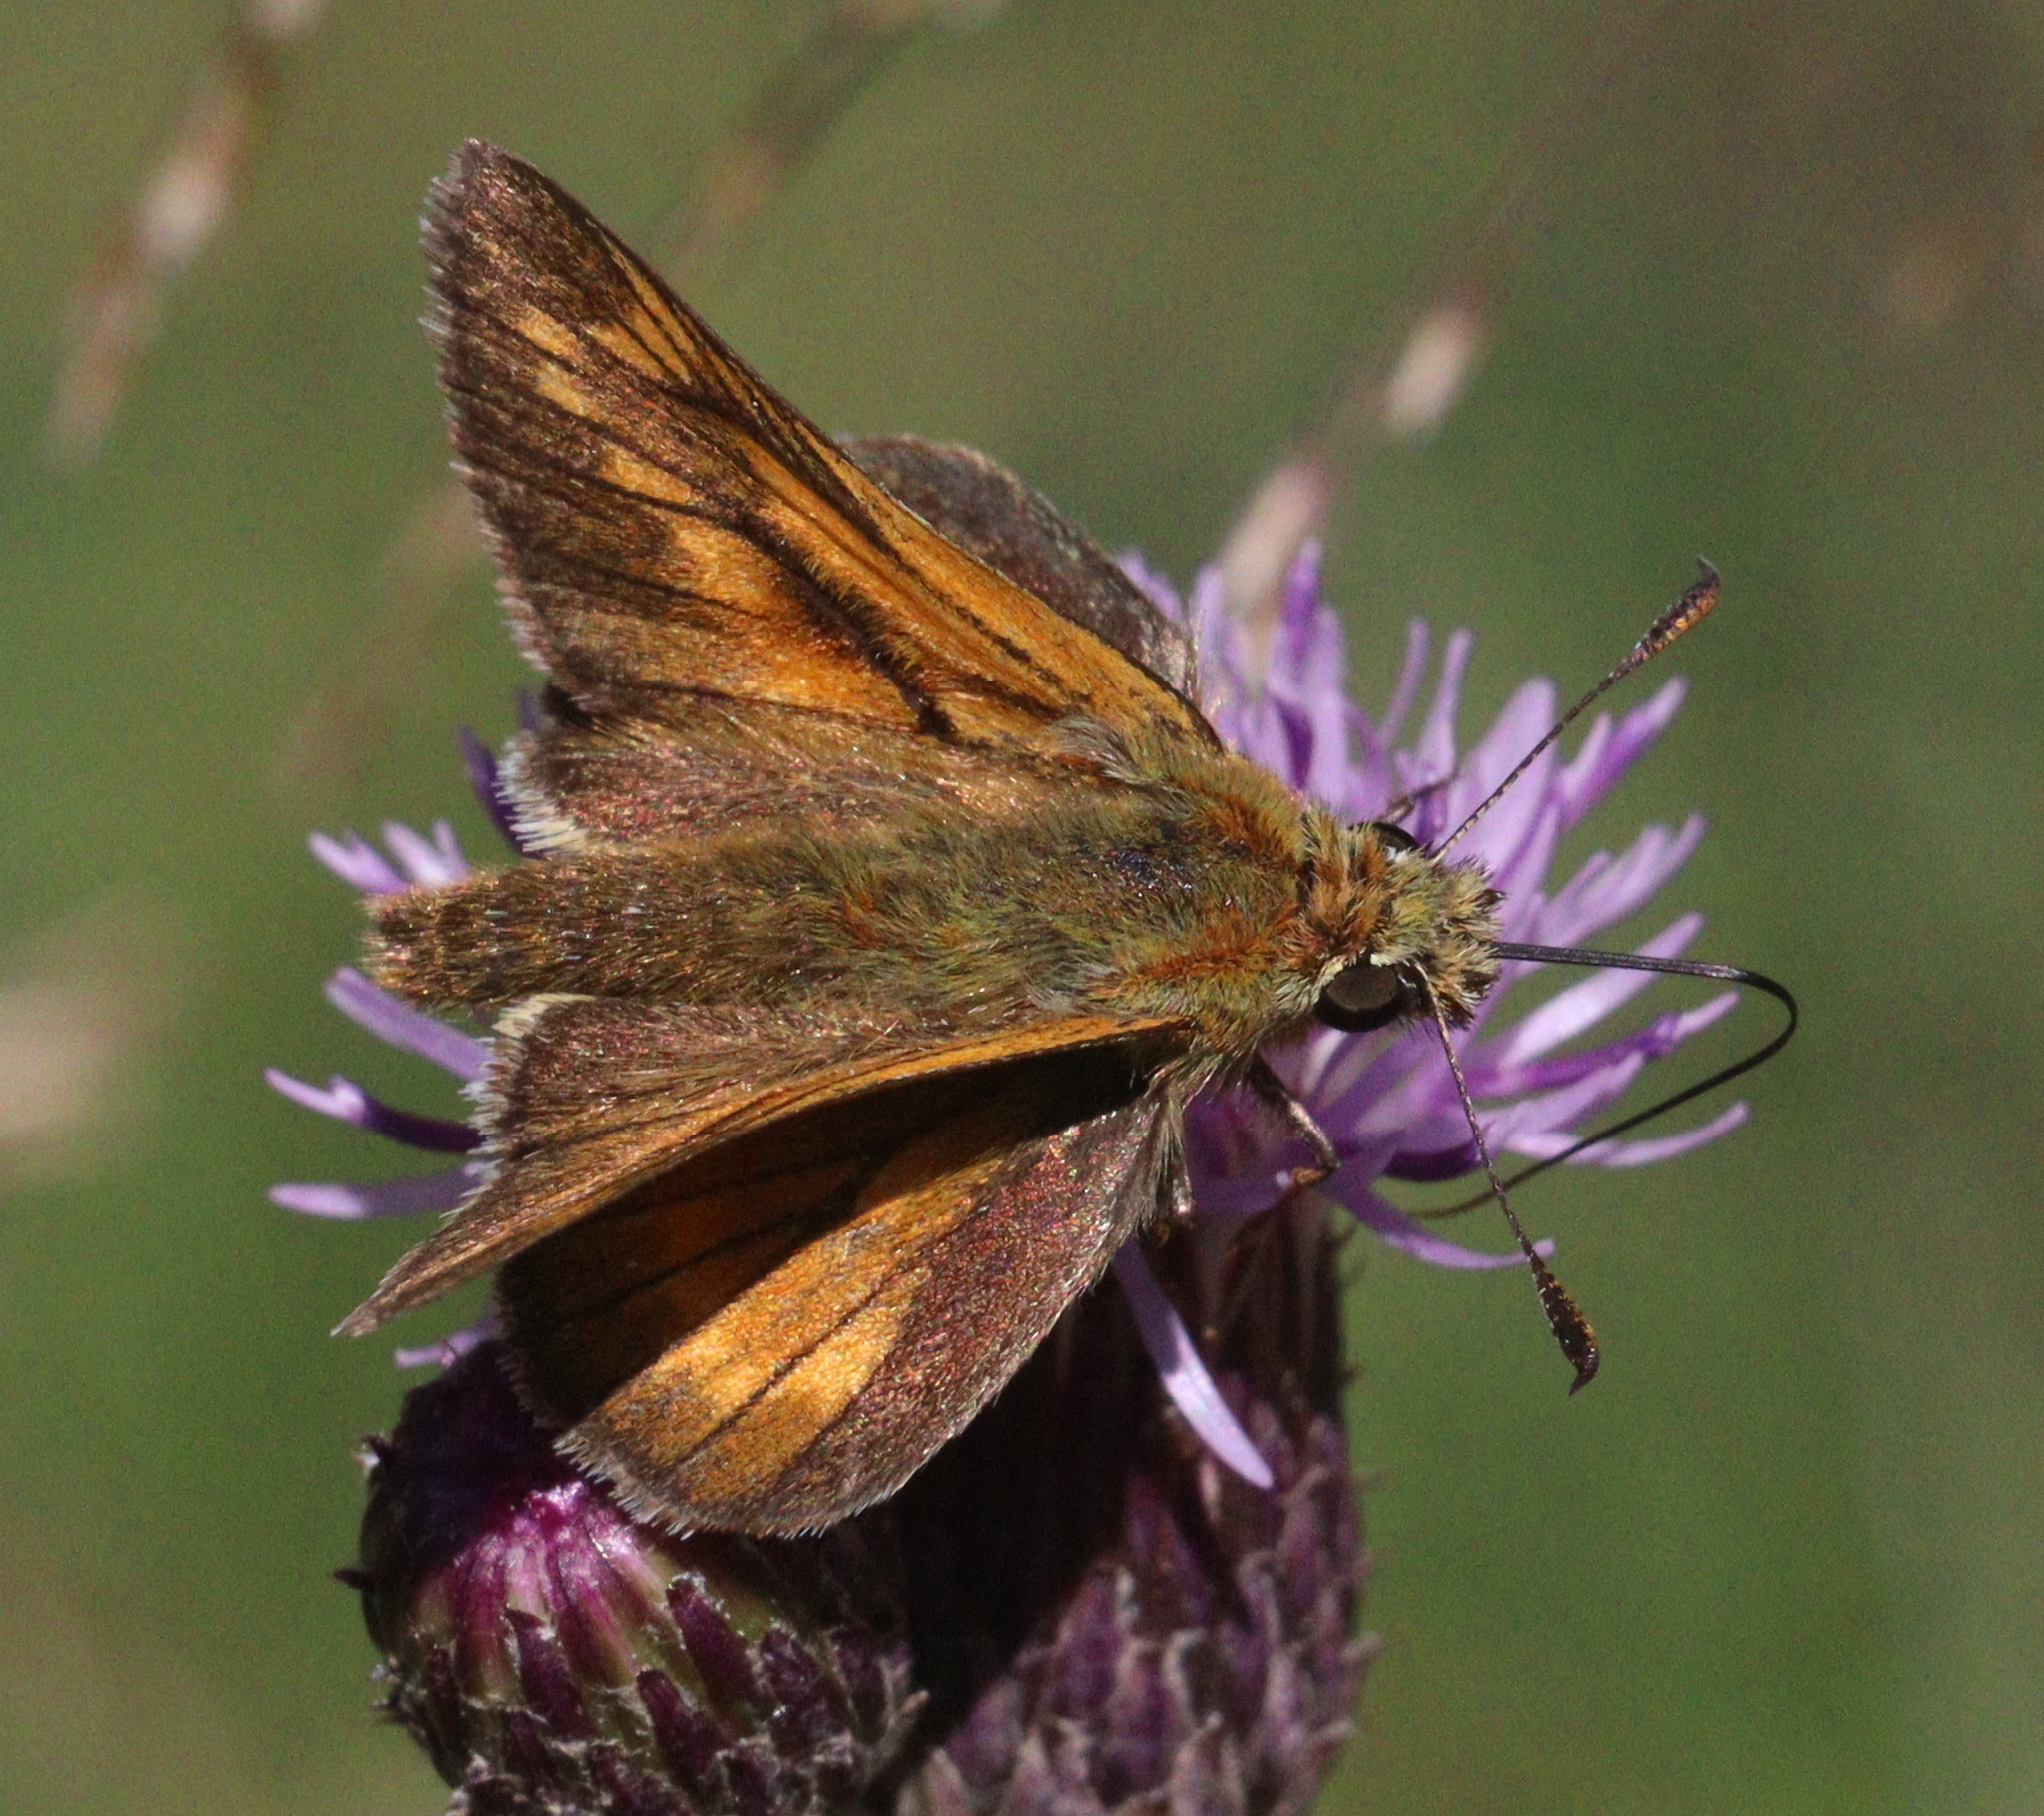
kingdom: Animalia
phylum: Arthropoda
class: Insecta
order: Lepidoptera
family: Hesperiidae
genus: Ochlodes
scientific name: Ochlodes venata
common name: Large skipper
